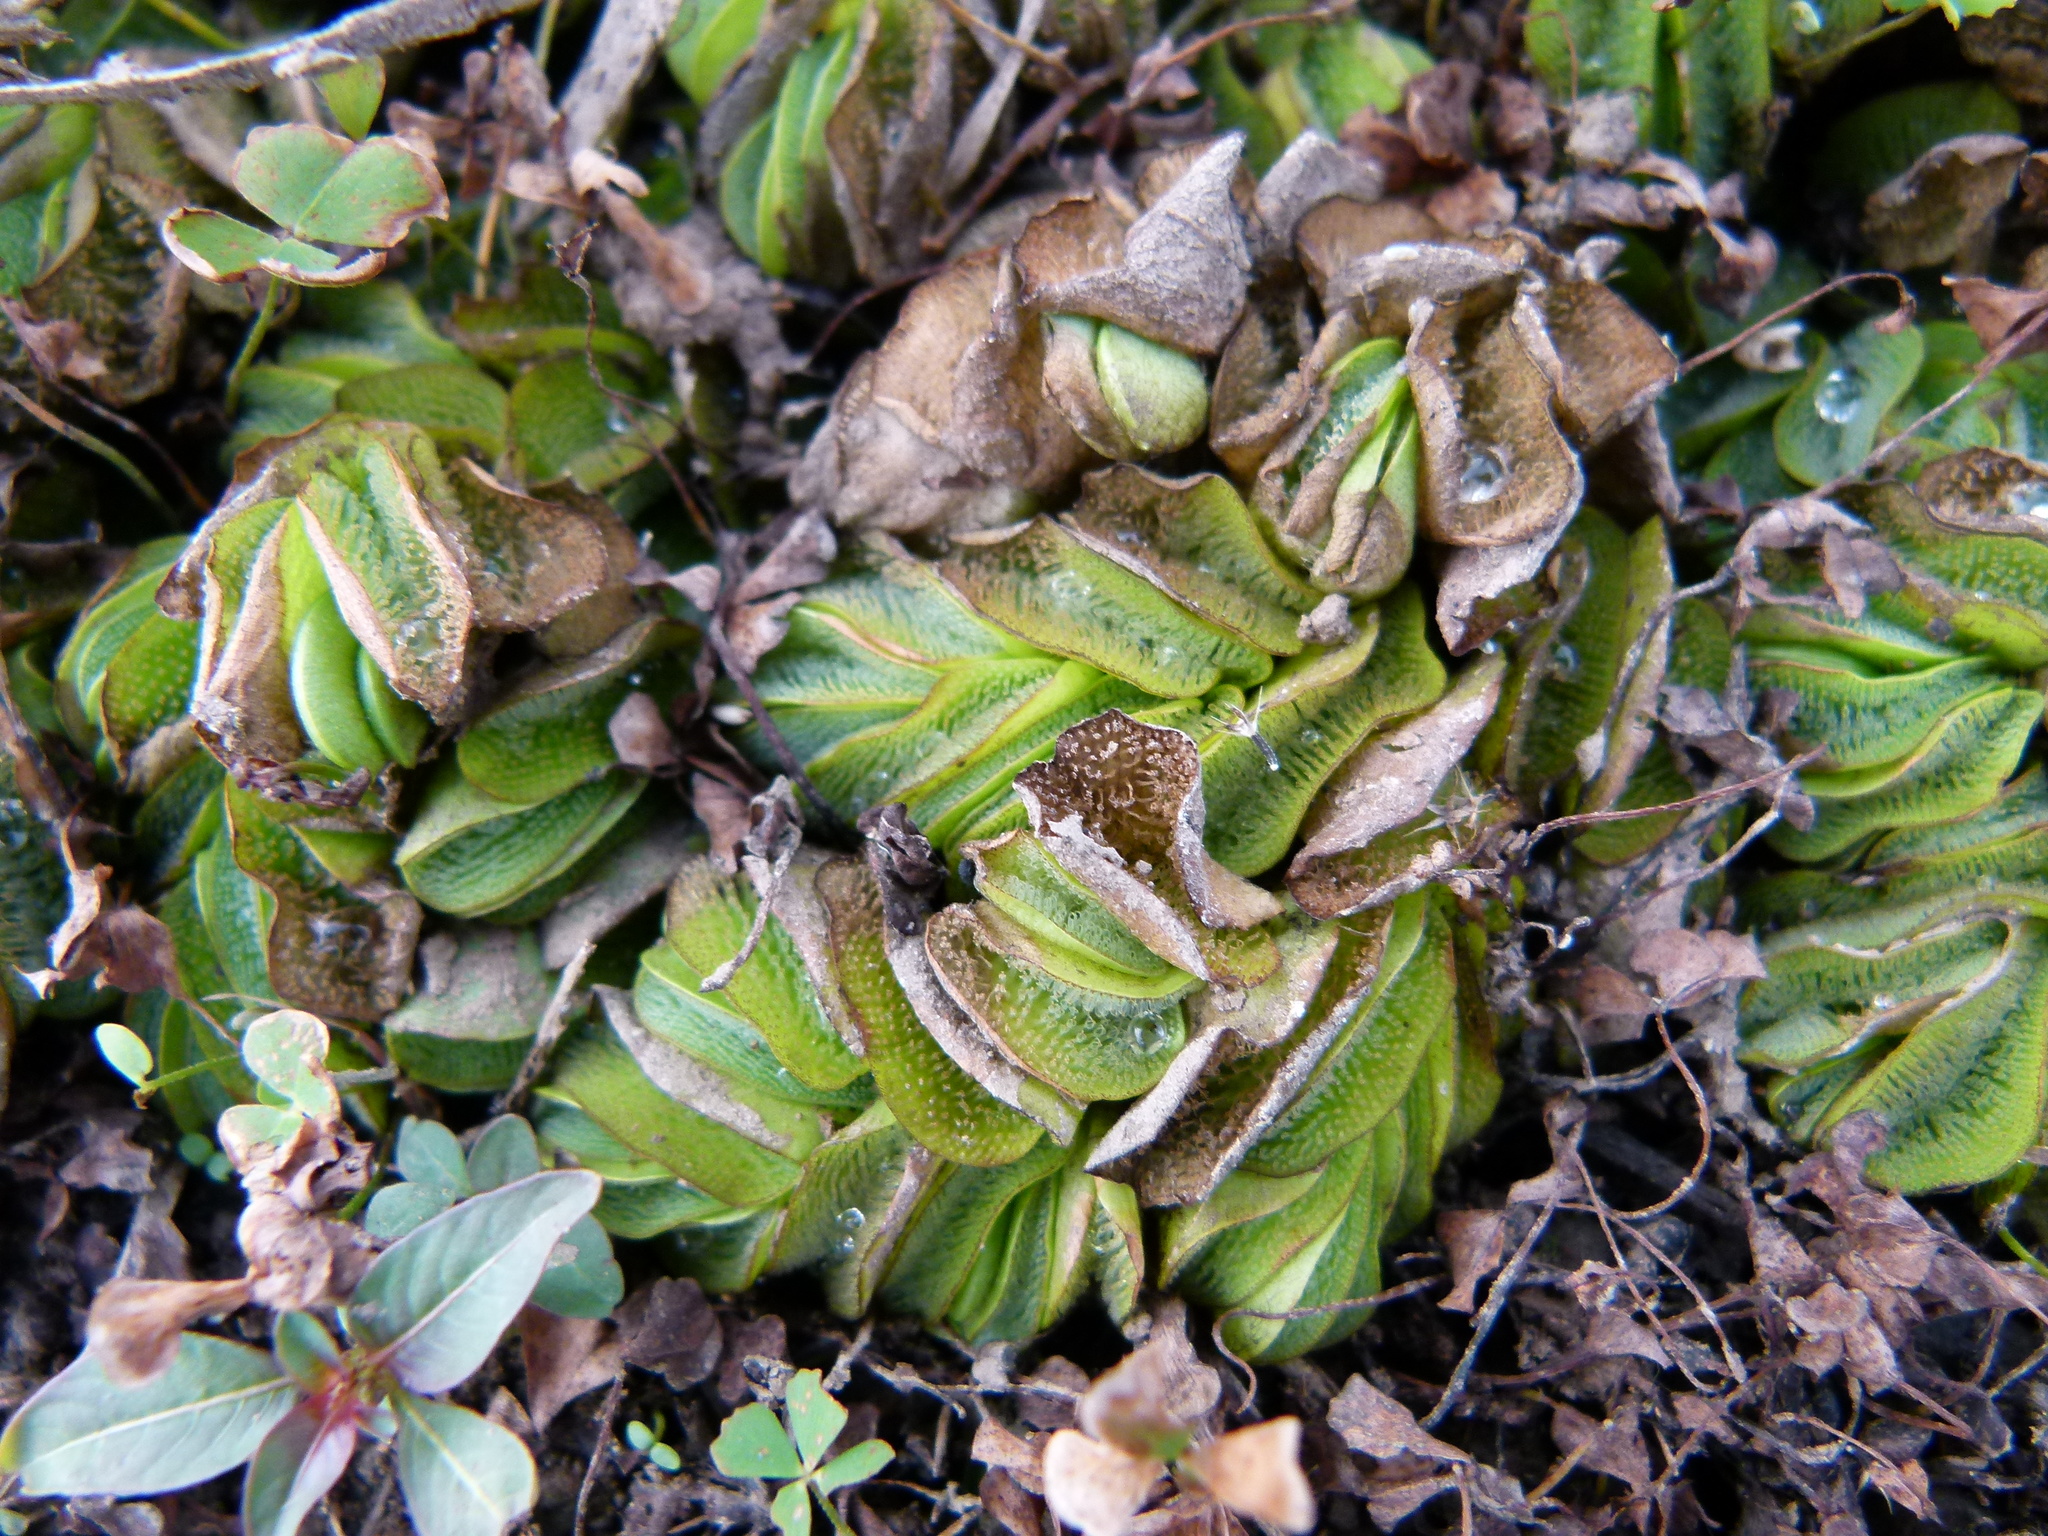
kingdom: Plantae
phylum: Tracheophyta
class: Polypodiopsida
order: Salviniales
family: Salviniaceae
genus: Salvinia
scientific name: Salvinia molesta
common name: Kariba weed
